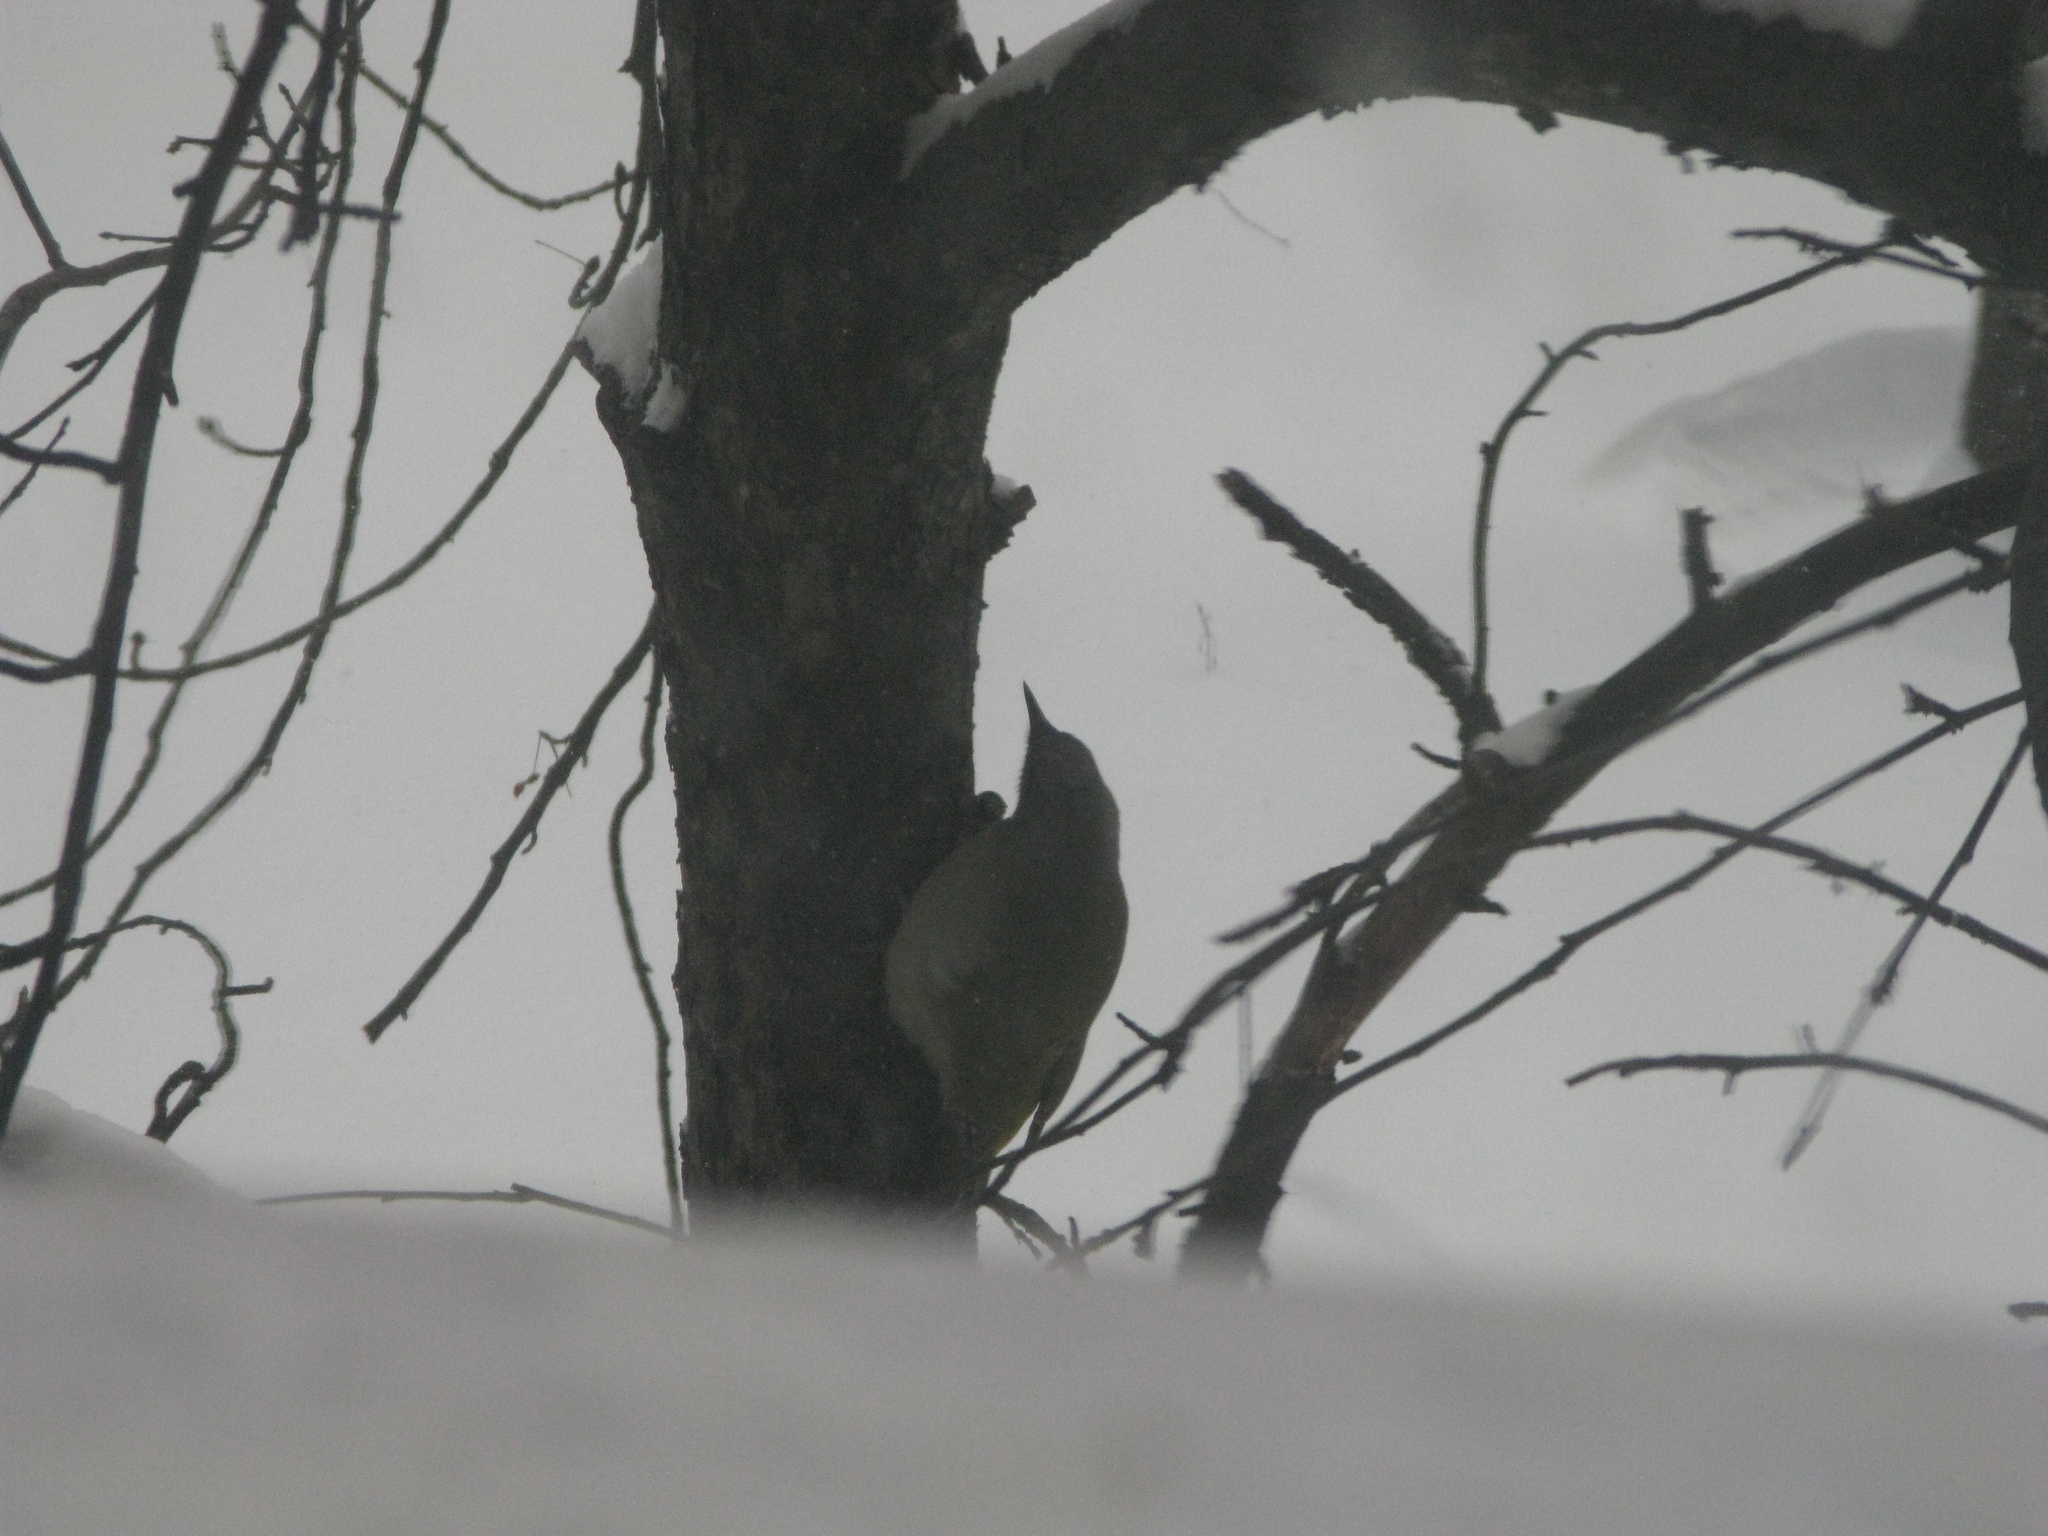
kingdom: Animalia
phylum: Chordata
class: Aves
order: Piciformes
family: Picidae
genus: Picus
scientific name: Picus canus
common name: Grey-headed woodpecker
